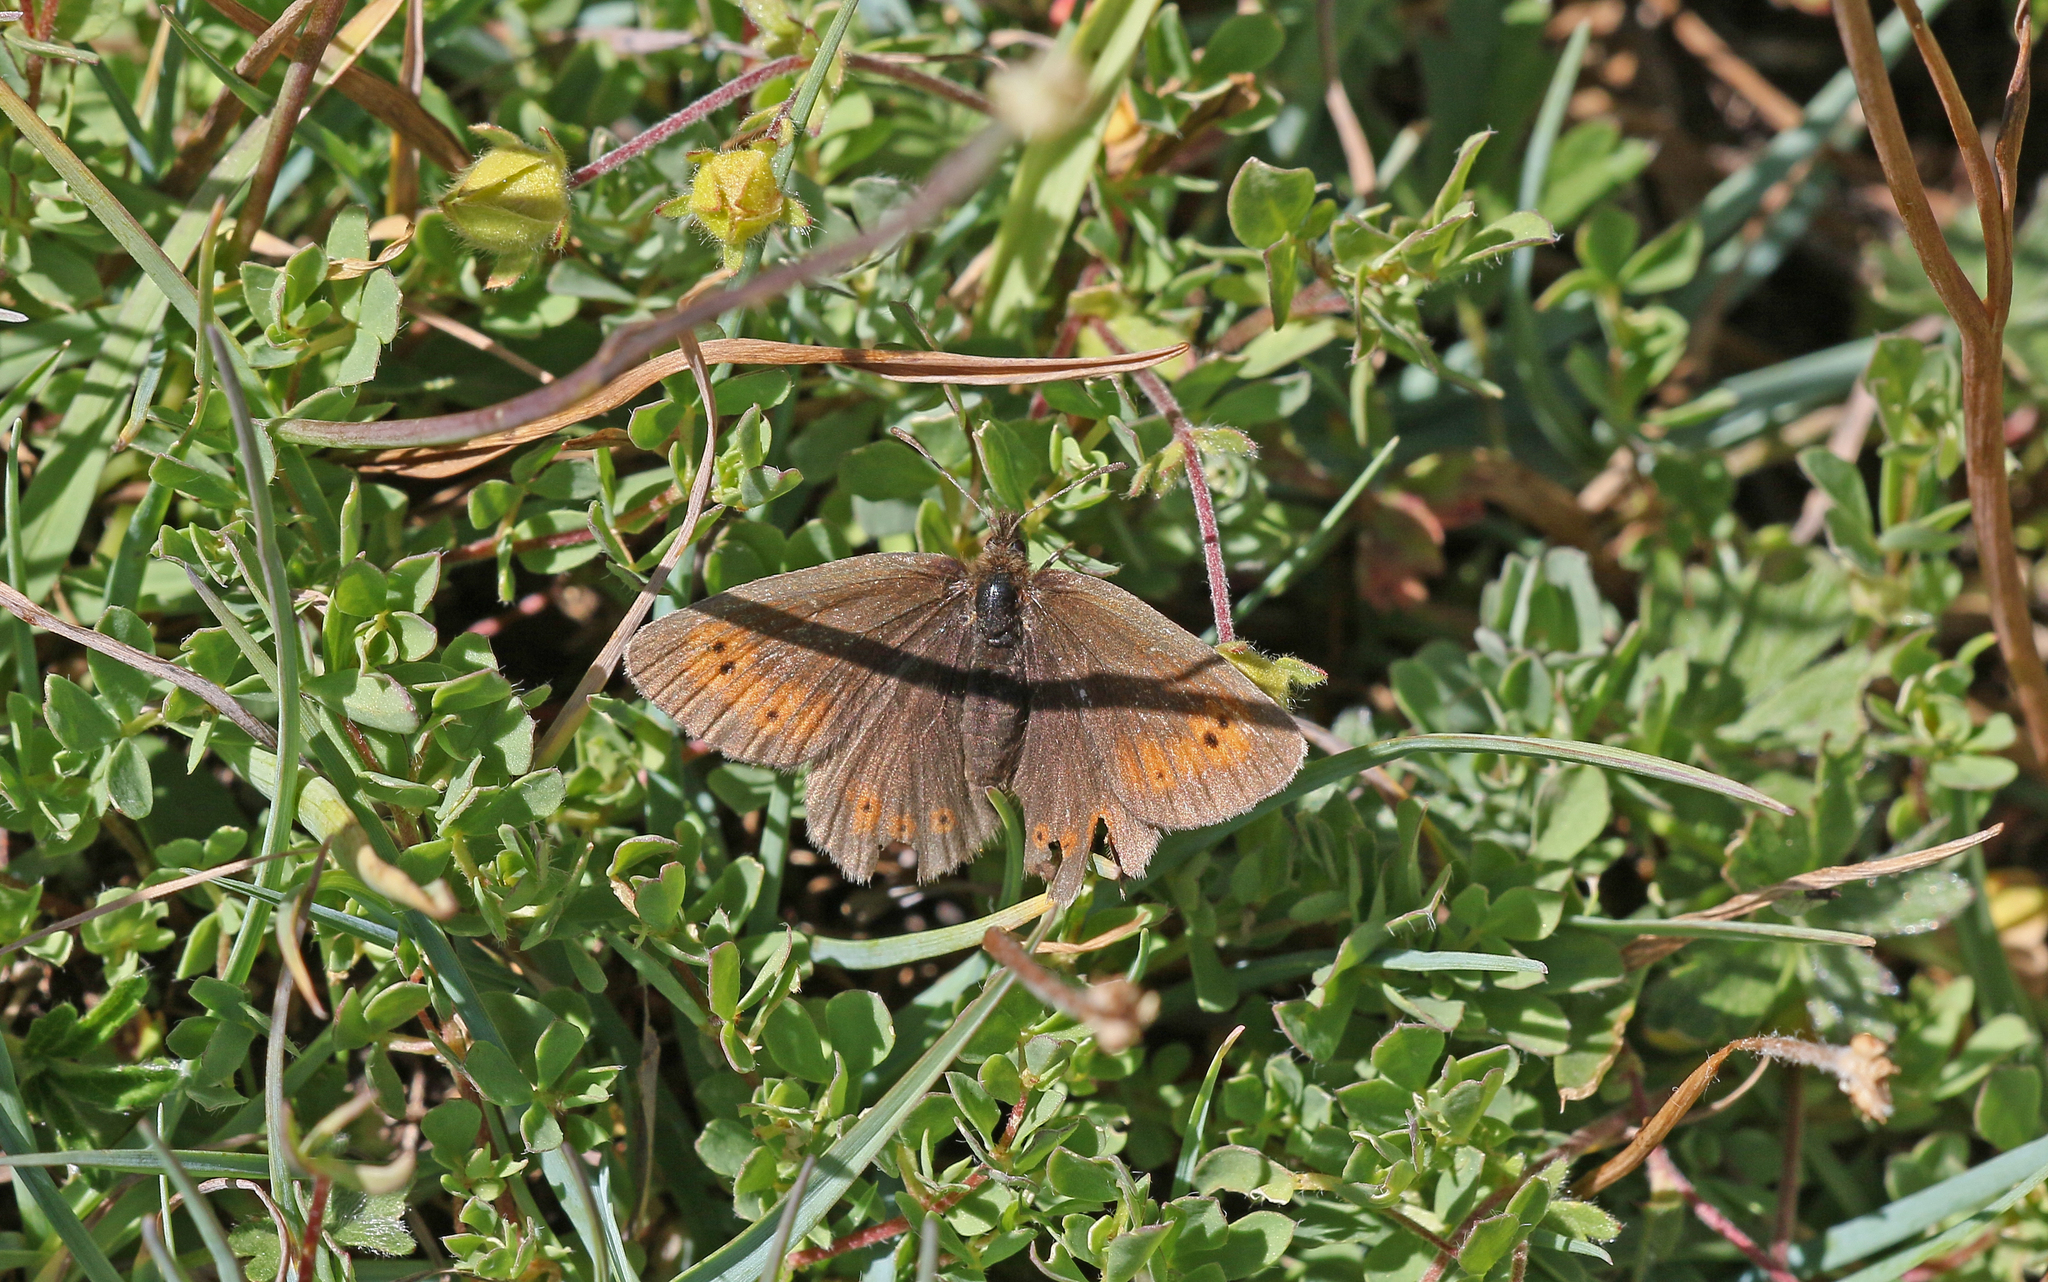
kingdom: Animalia
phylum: Arthropoda
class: Insecta
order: Lepidoptera
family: Nymphalidae
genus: Erebia
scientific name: Erebia epiphron
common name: Mountain ringlet
